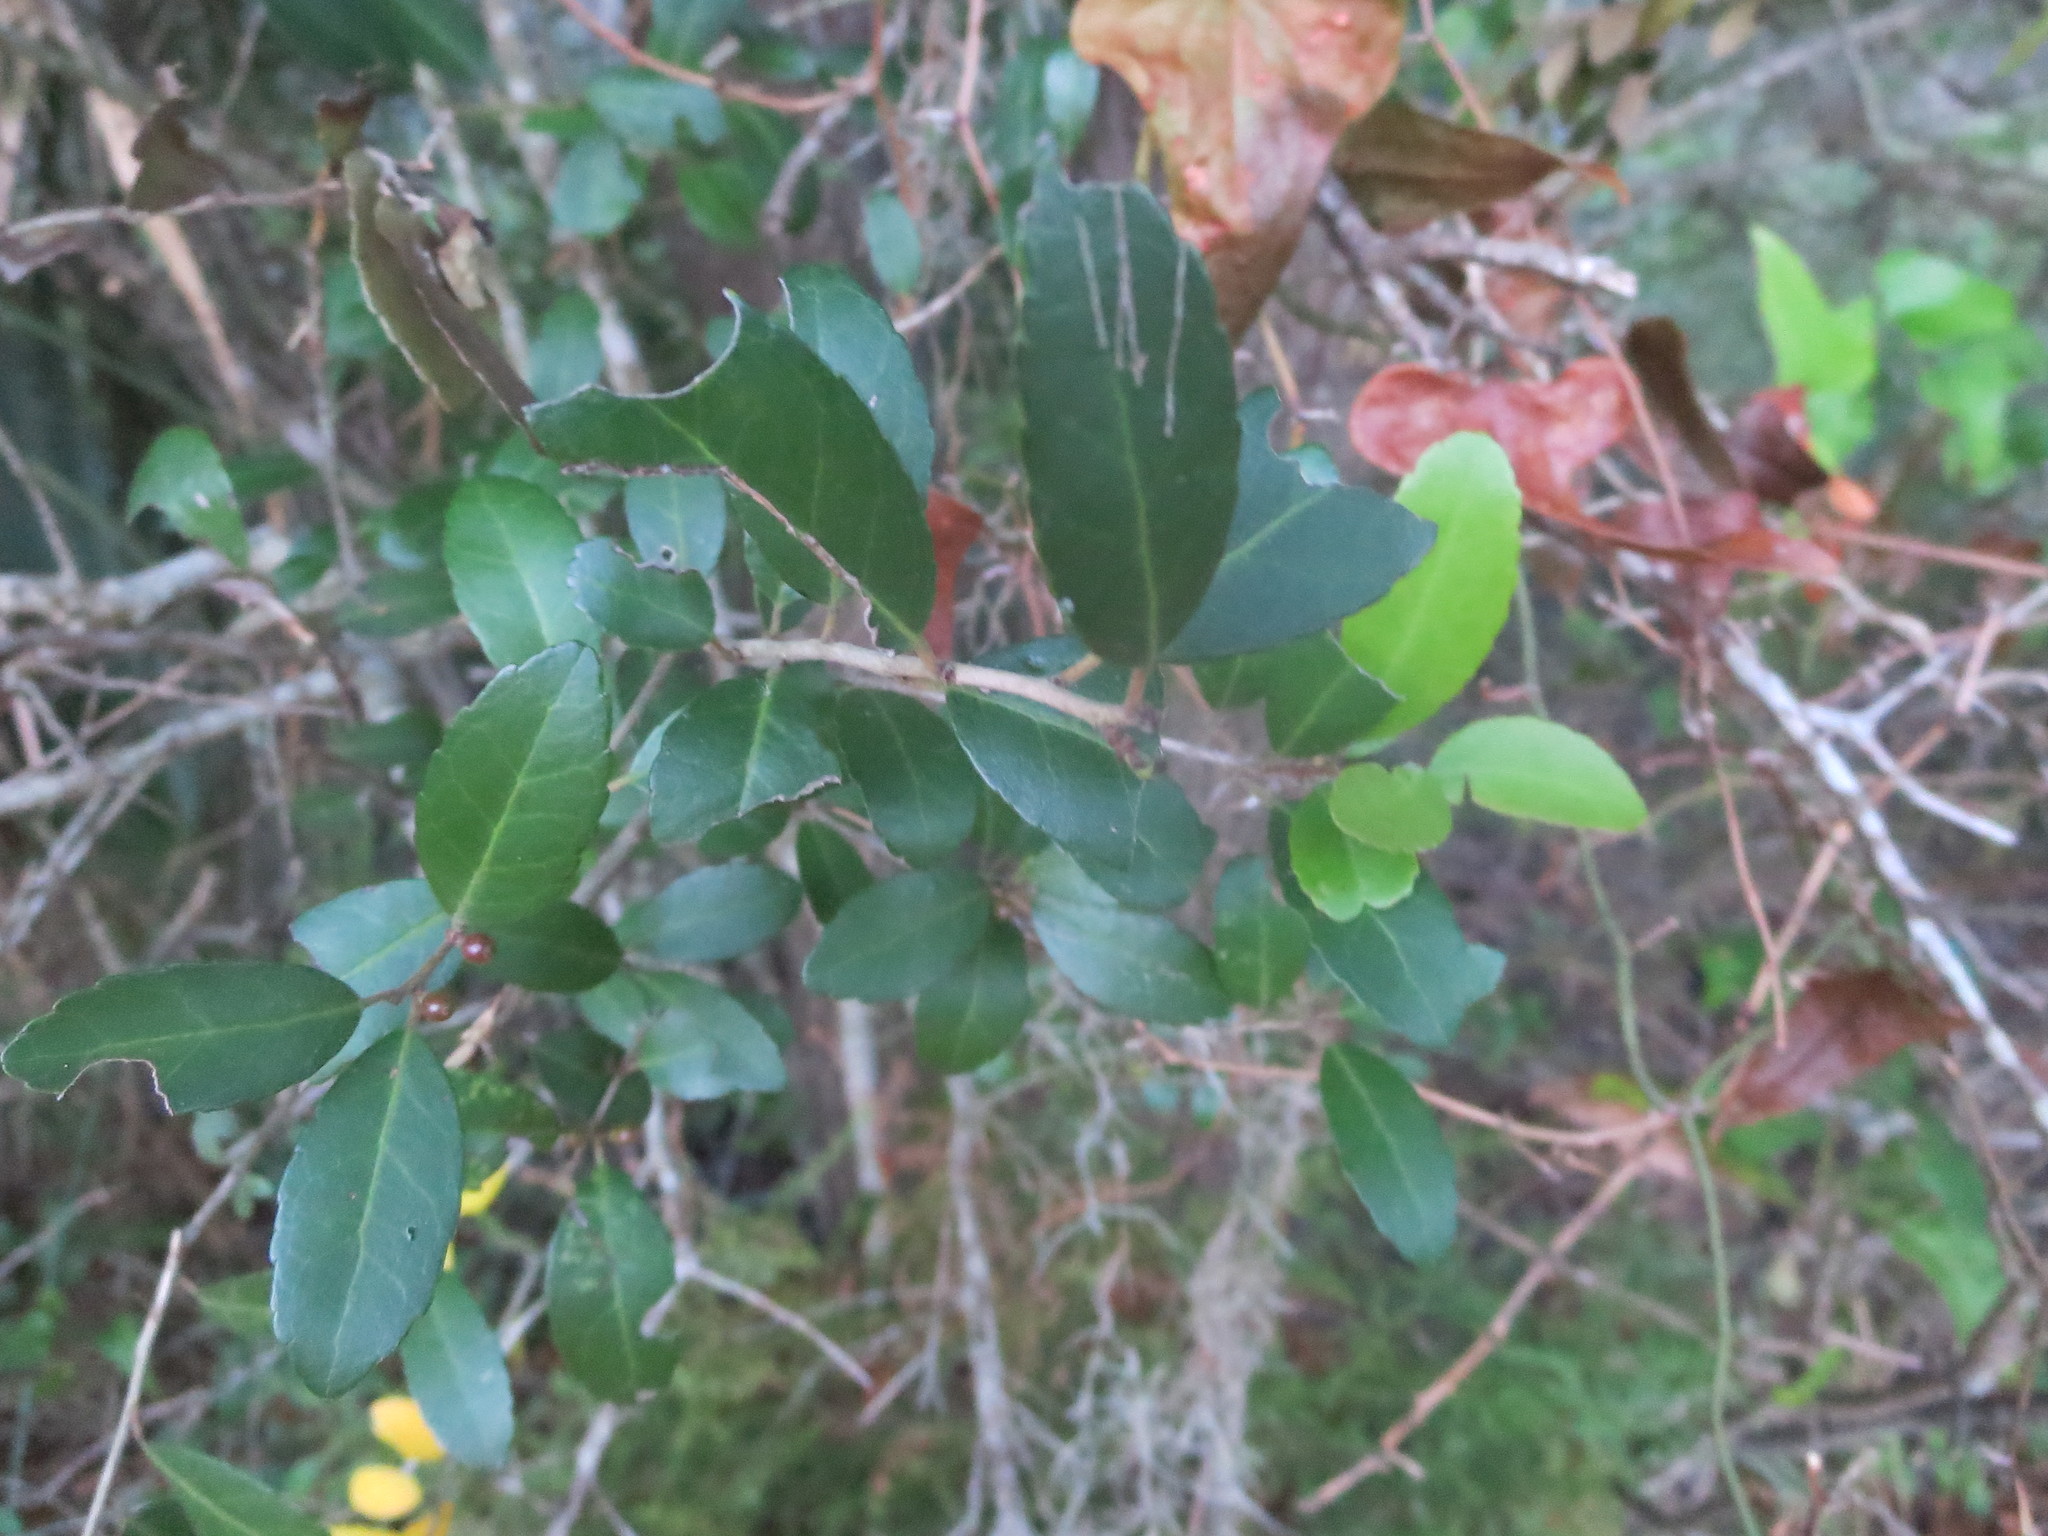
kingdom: Plantae
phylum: Tracheophyta
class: Magnoliopsida
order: Aquifoliales
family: Aquifoliaceae
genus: Ilex
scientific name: Ilex vomitoria
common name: Yaupon holly
